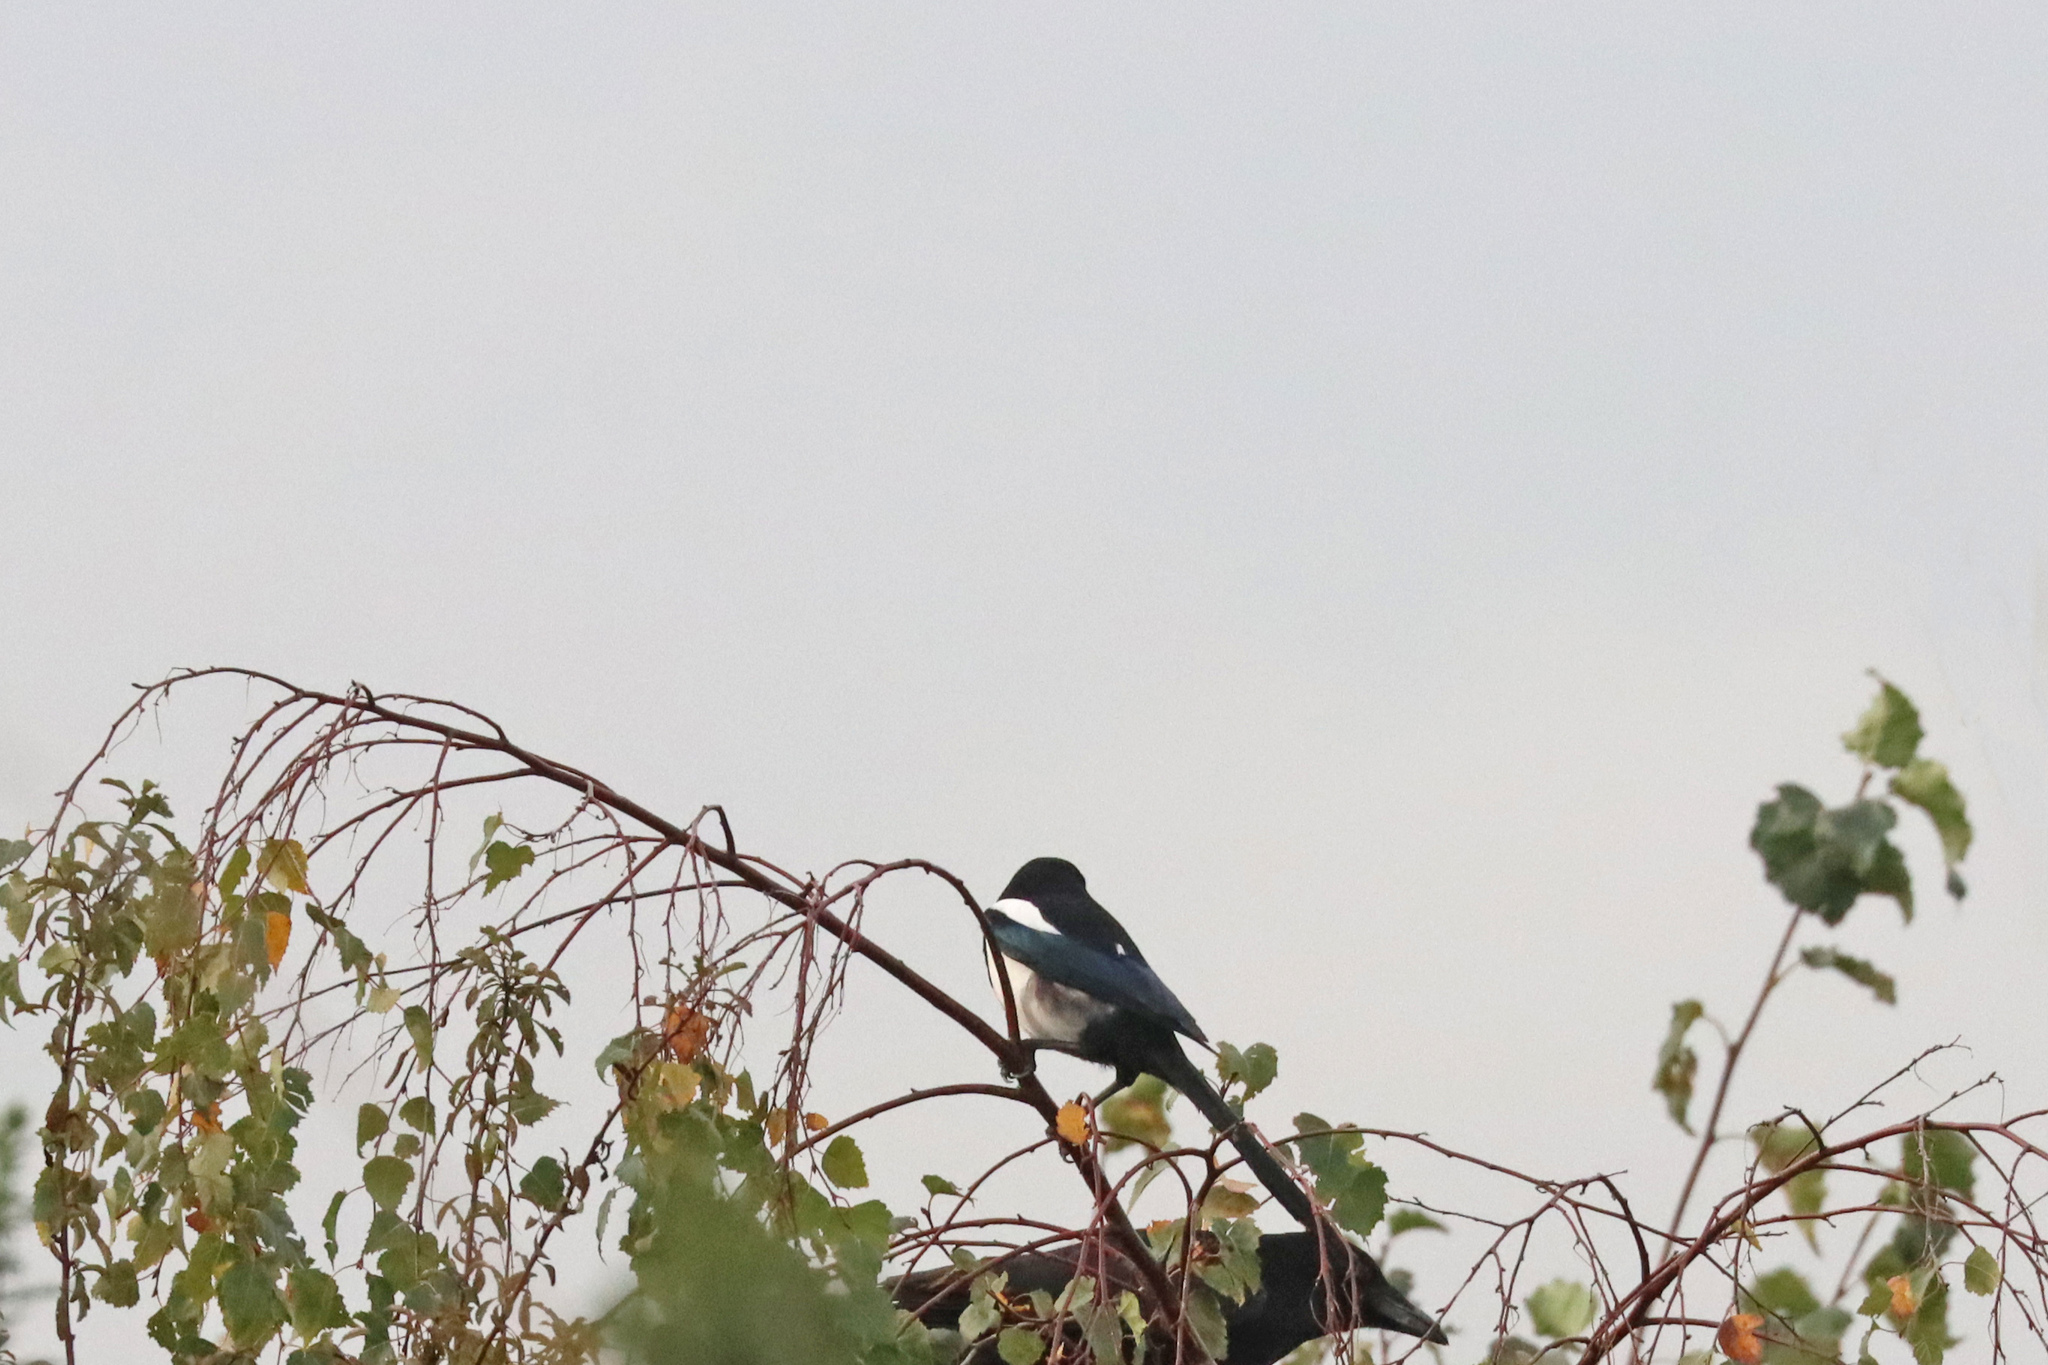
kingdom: Animalia
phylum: Chordata
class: Aves
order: Passeriformes
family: Corvidae
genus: Pica
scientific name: Pica pica
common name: Eurasian magpie
